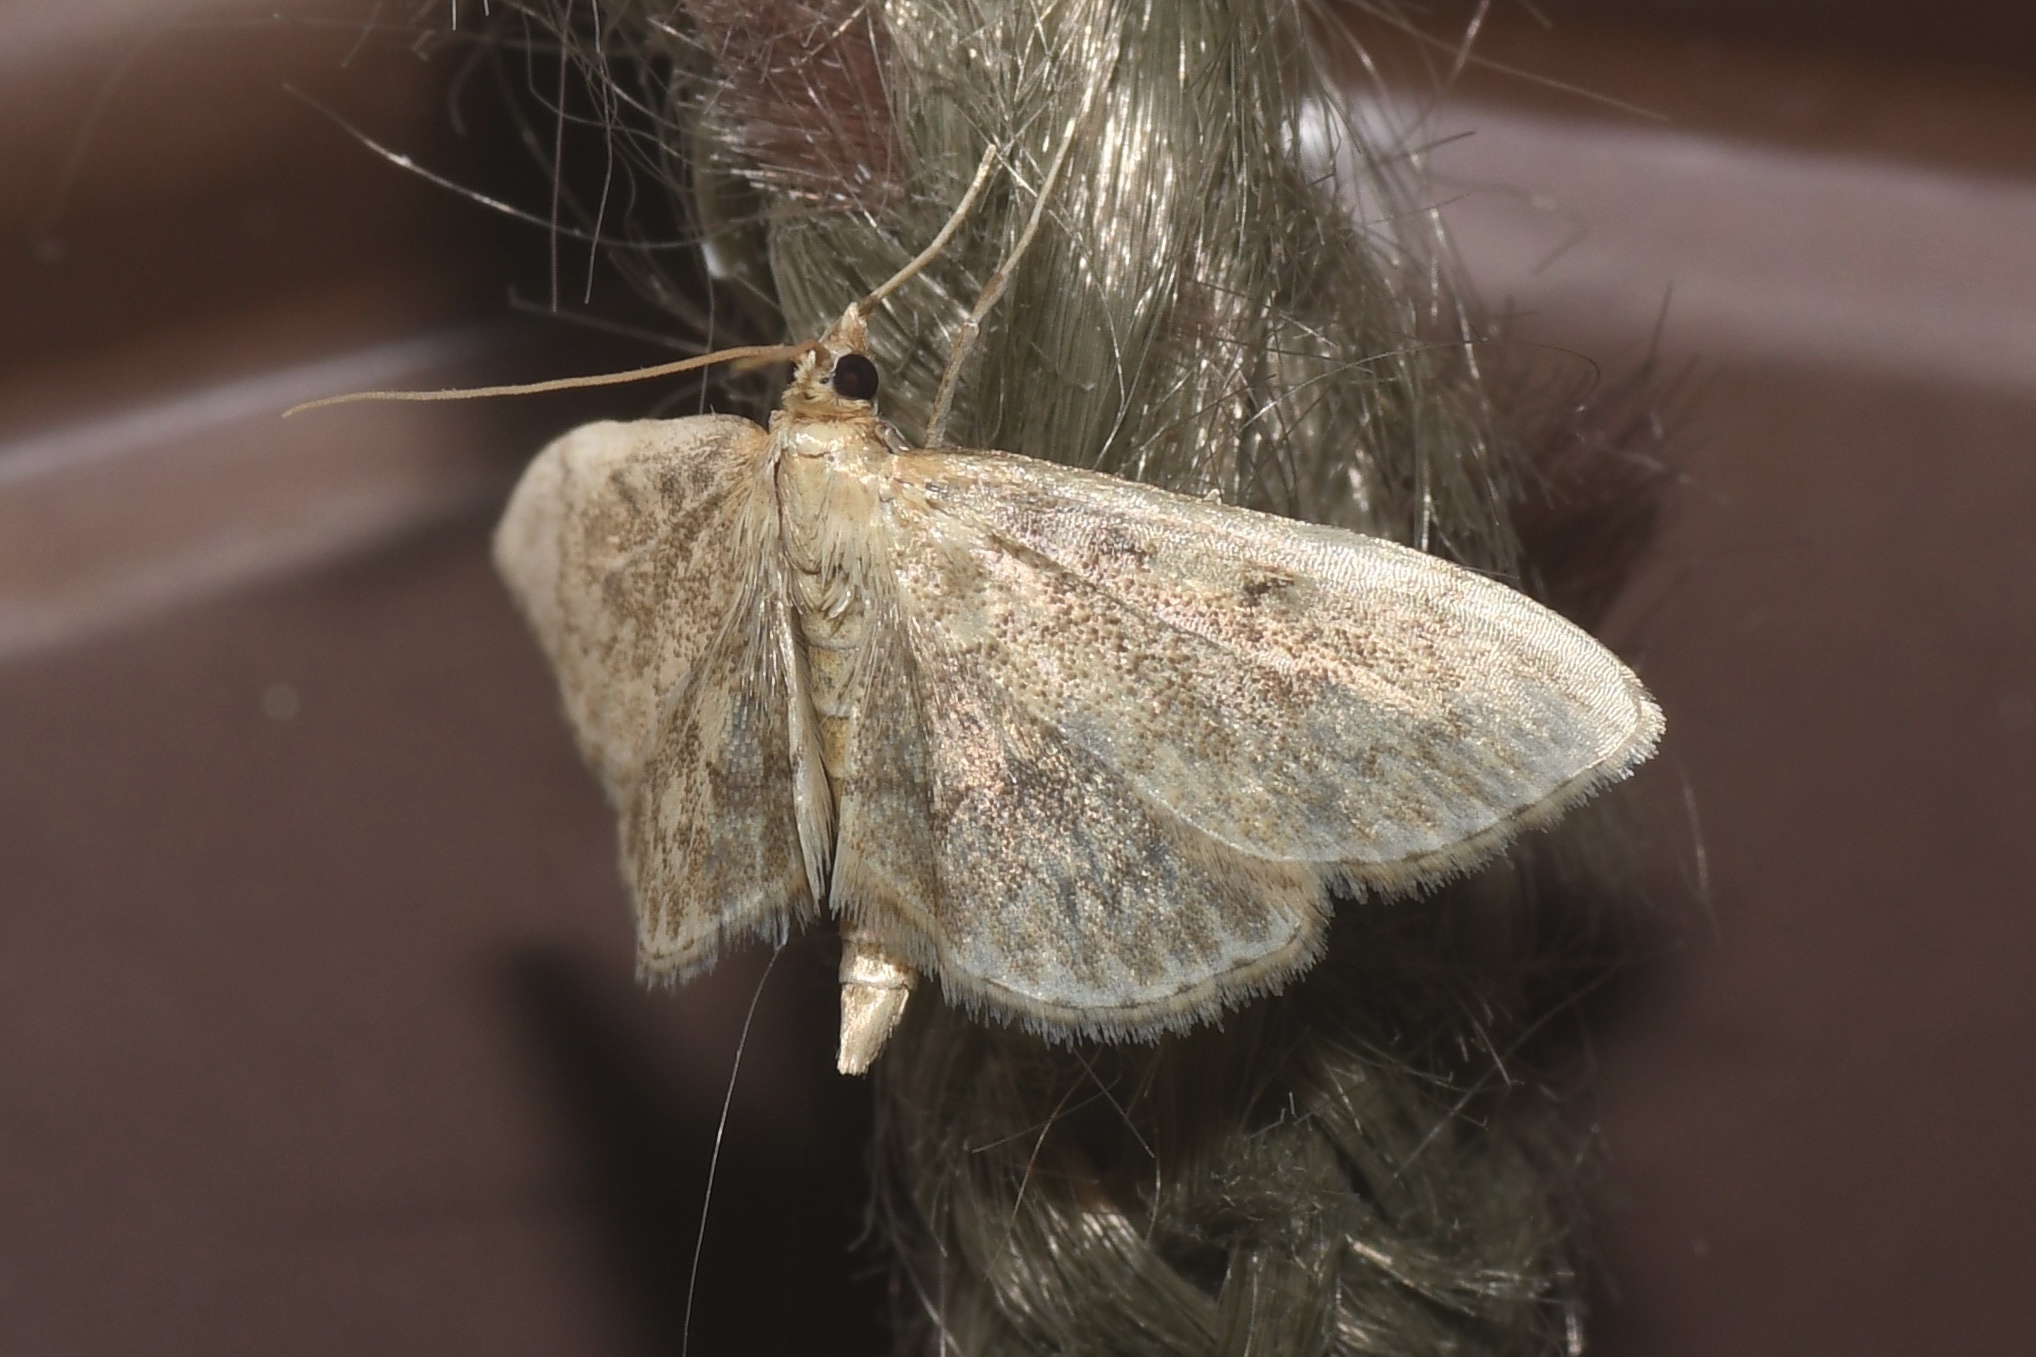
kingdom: Animalia
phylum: Arthropoda
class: Insecta
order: Lepidoptera
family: Crambidae
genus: Anania
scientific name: Anania quebecensis
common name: Quebec anania moth
